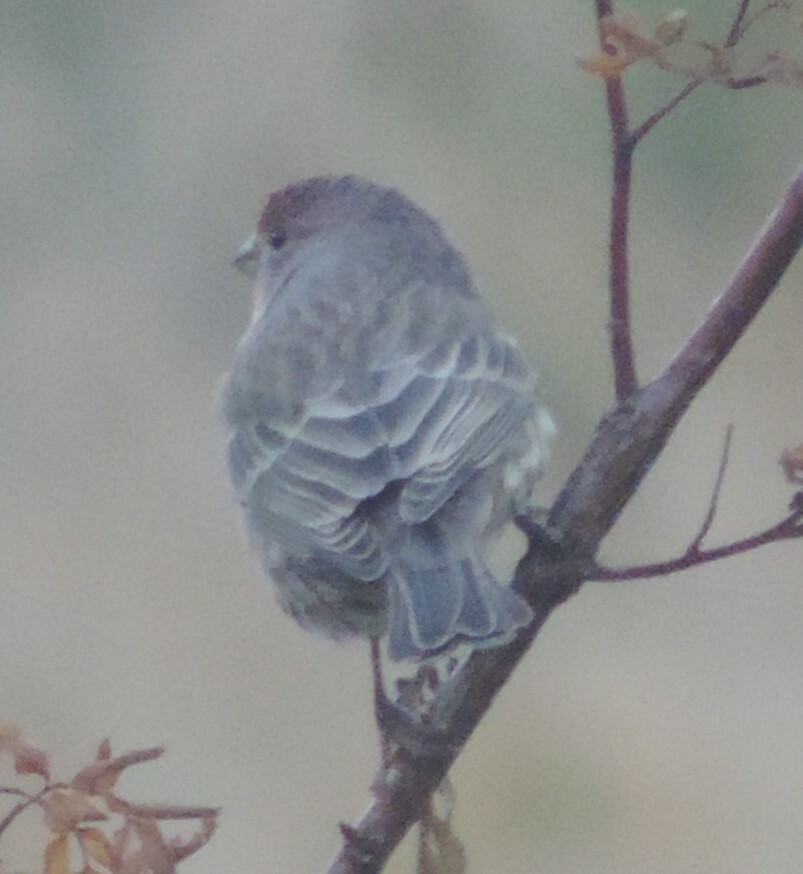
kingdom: Animalia
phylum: Chordata
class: Aves
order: Passeriformes
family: Fringillidae
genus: Haemorhous
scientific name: Haemorhous mexicanus
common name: House finch
